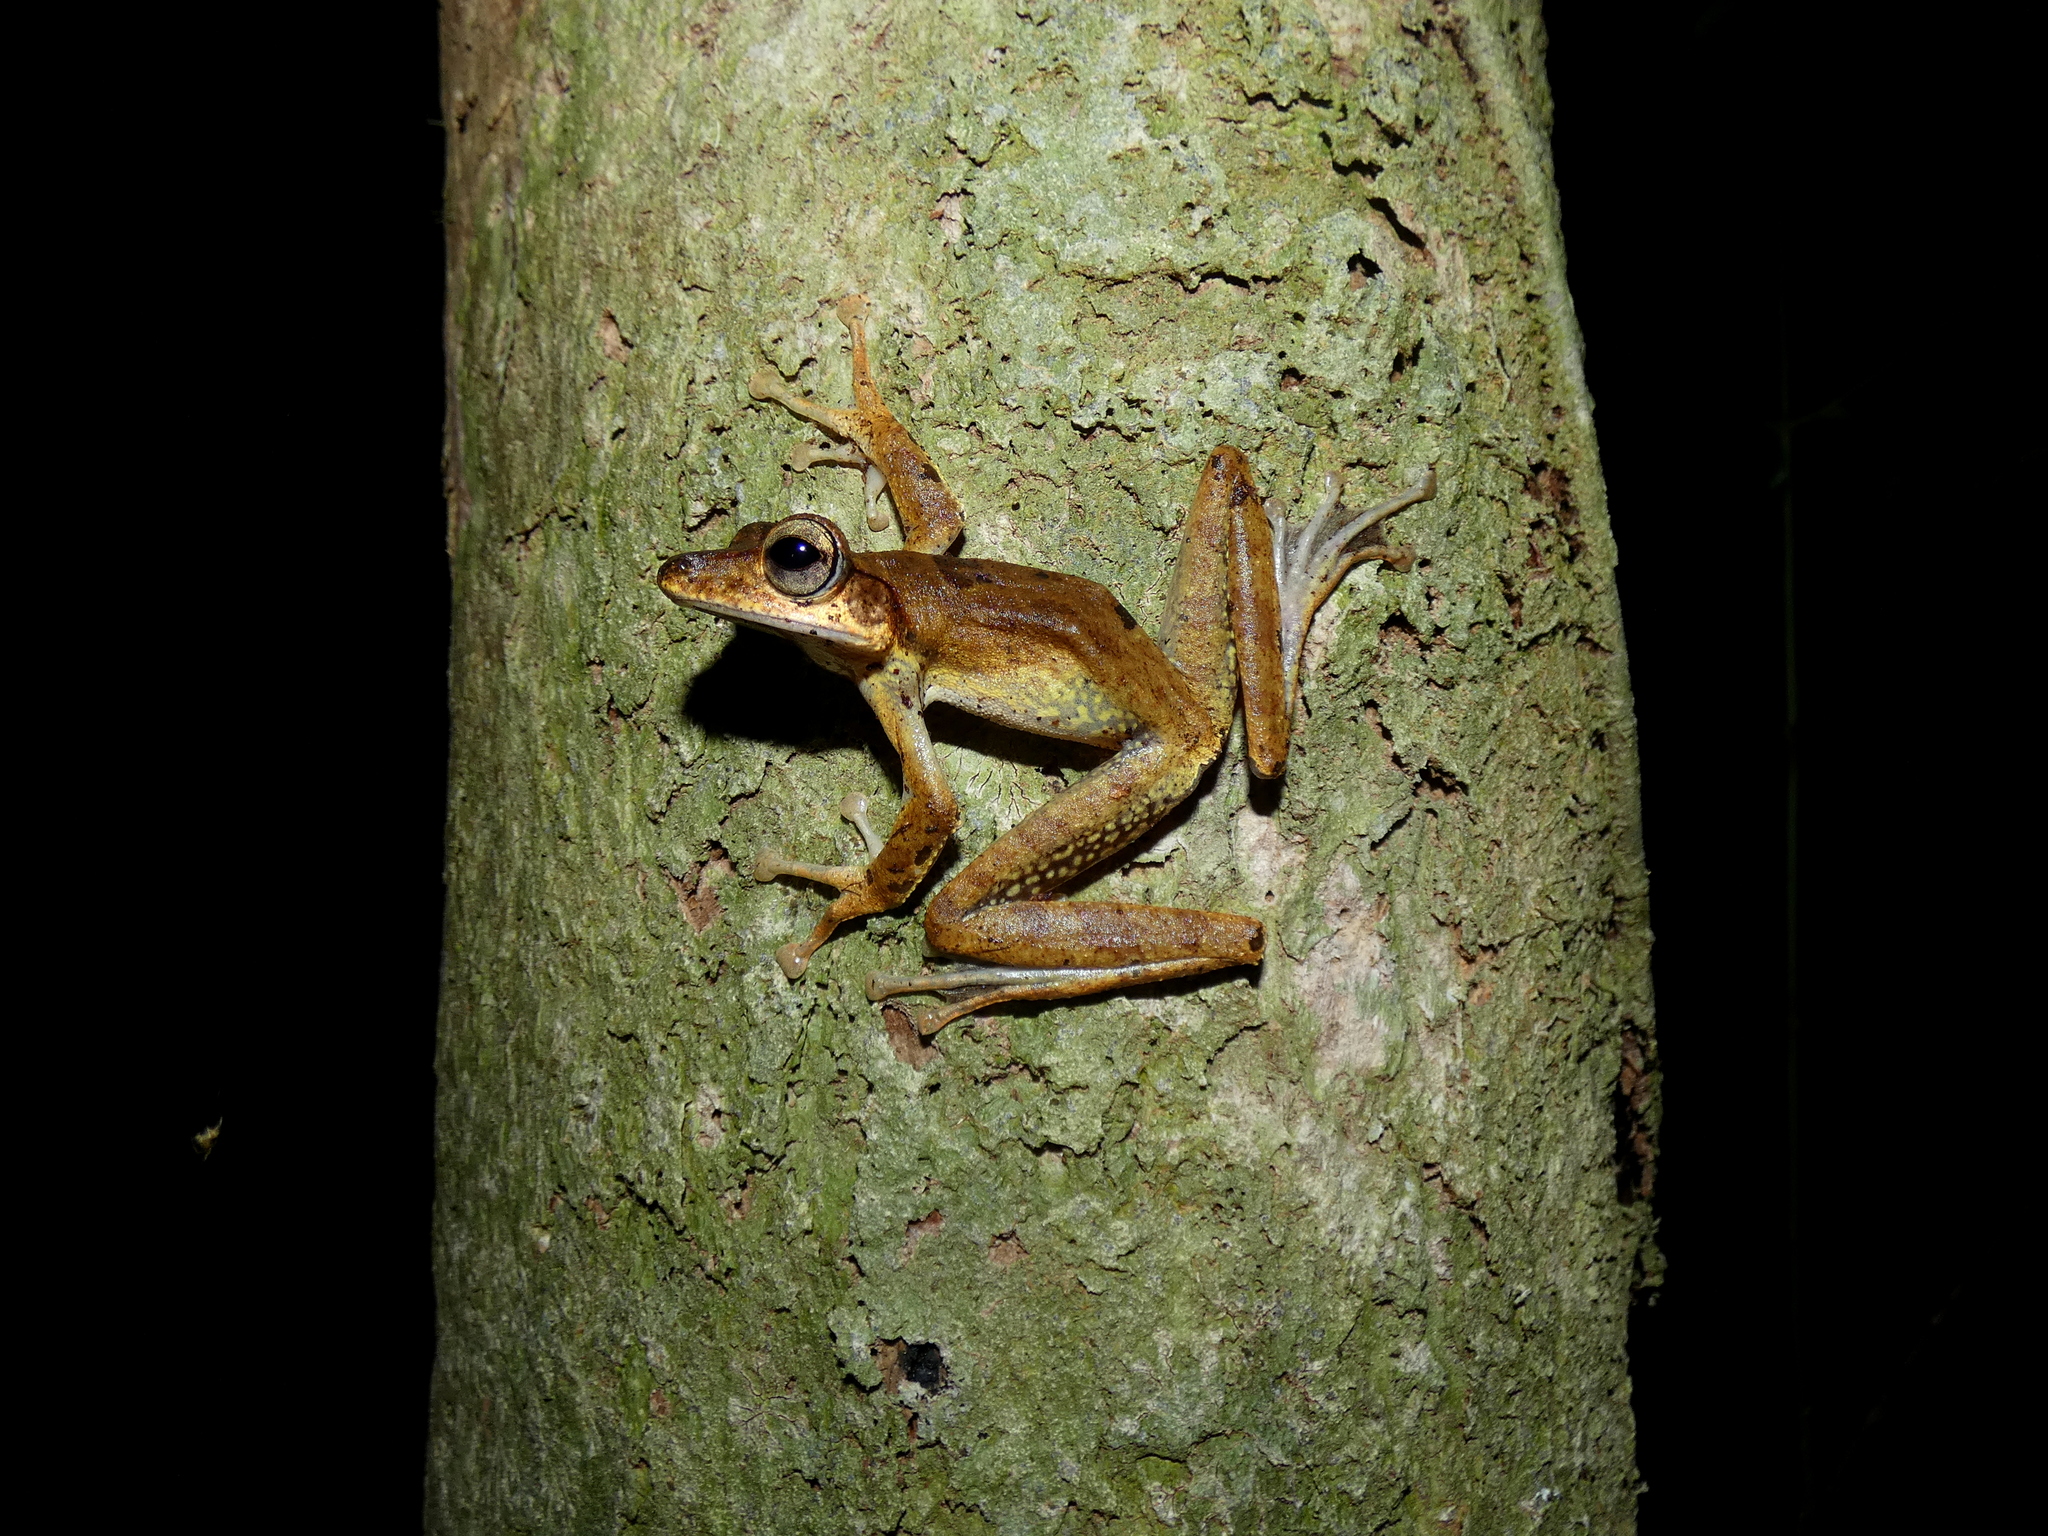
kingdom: Animalia
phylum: Chordata
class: Amphibia
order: Anura
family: Rhacophoridae
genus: Polypedates
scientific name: Polypedates macrotis
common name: Dark-eared tree frog
